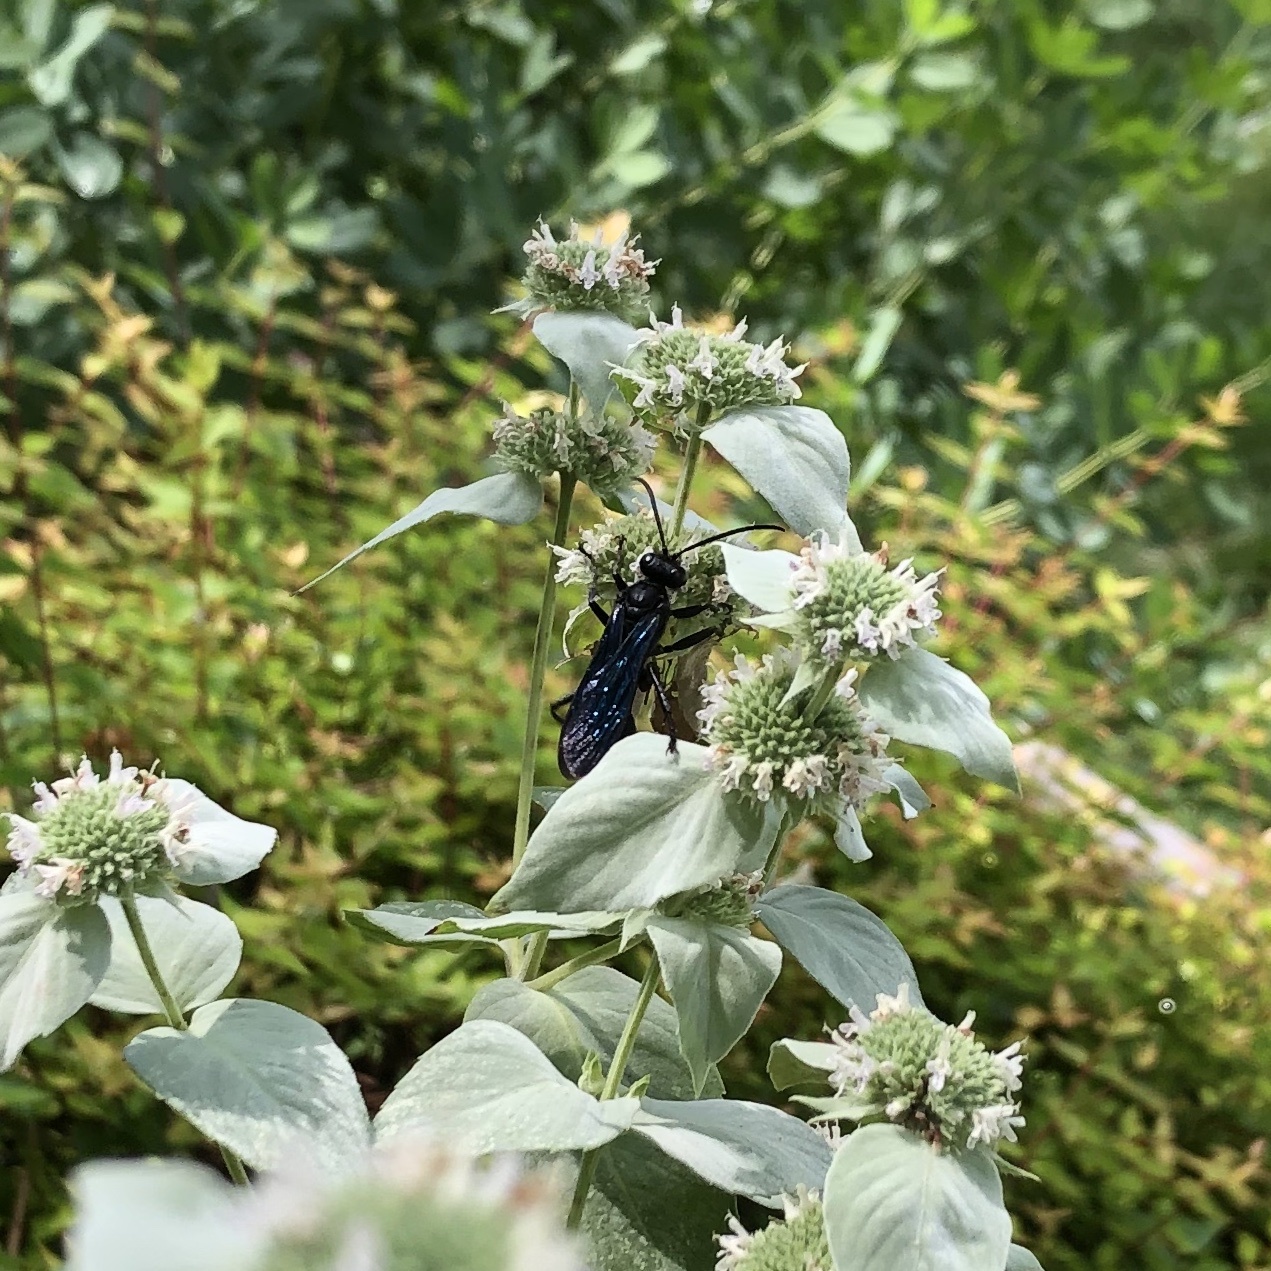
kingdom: Animalia
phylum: Arthropoda
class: Insecta
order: Hymenoptera
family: Sphecidae
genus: Sphex
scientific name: Sphex pensylvanicus
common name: Great black digger wasp
